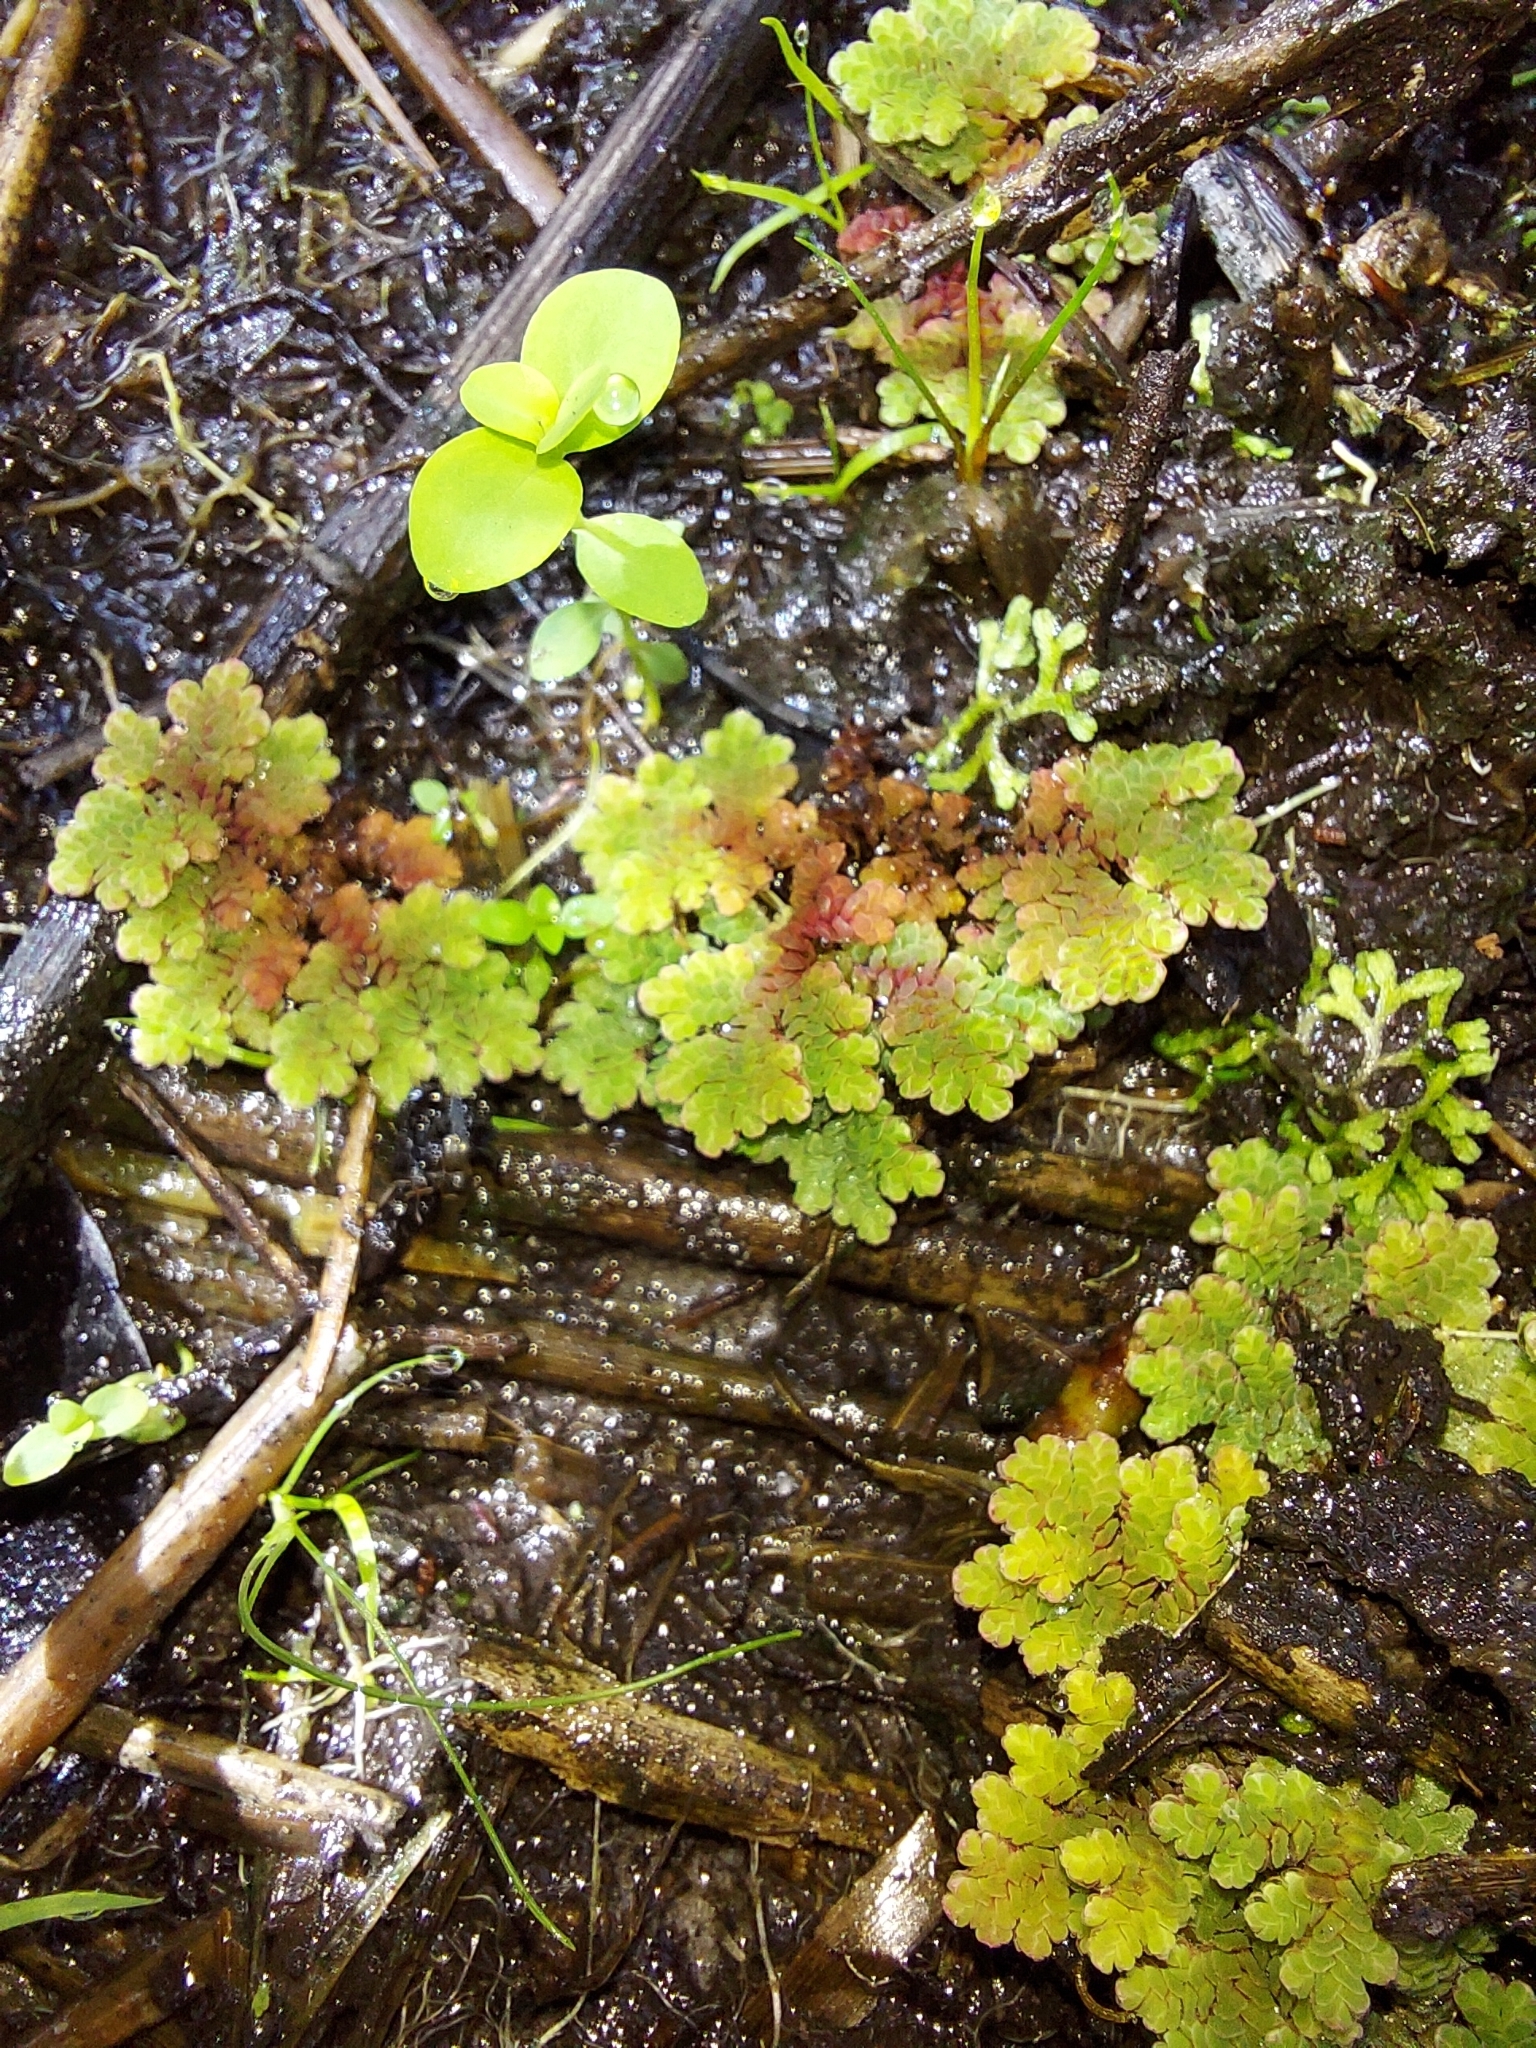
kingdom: Plantae
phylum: Tracheophyta
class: Polypodiopsida
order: Salviniales
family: Salviniaceae
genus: Azolla
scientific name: Azolla filiculoides
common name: Water fern
